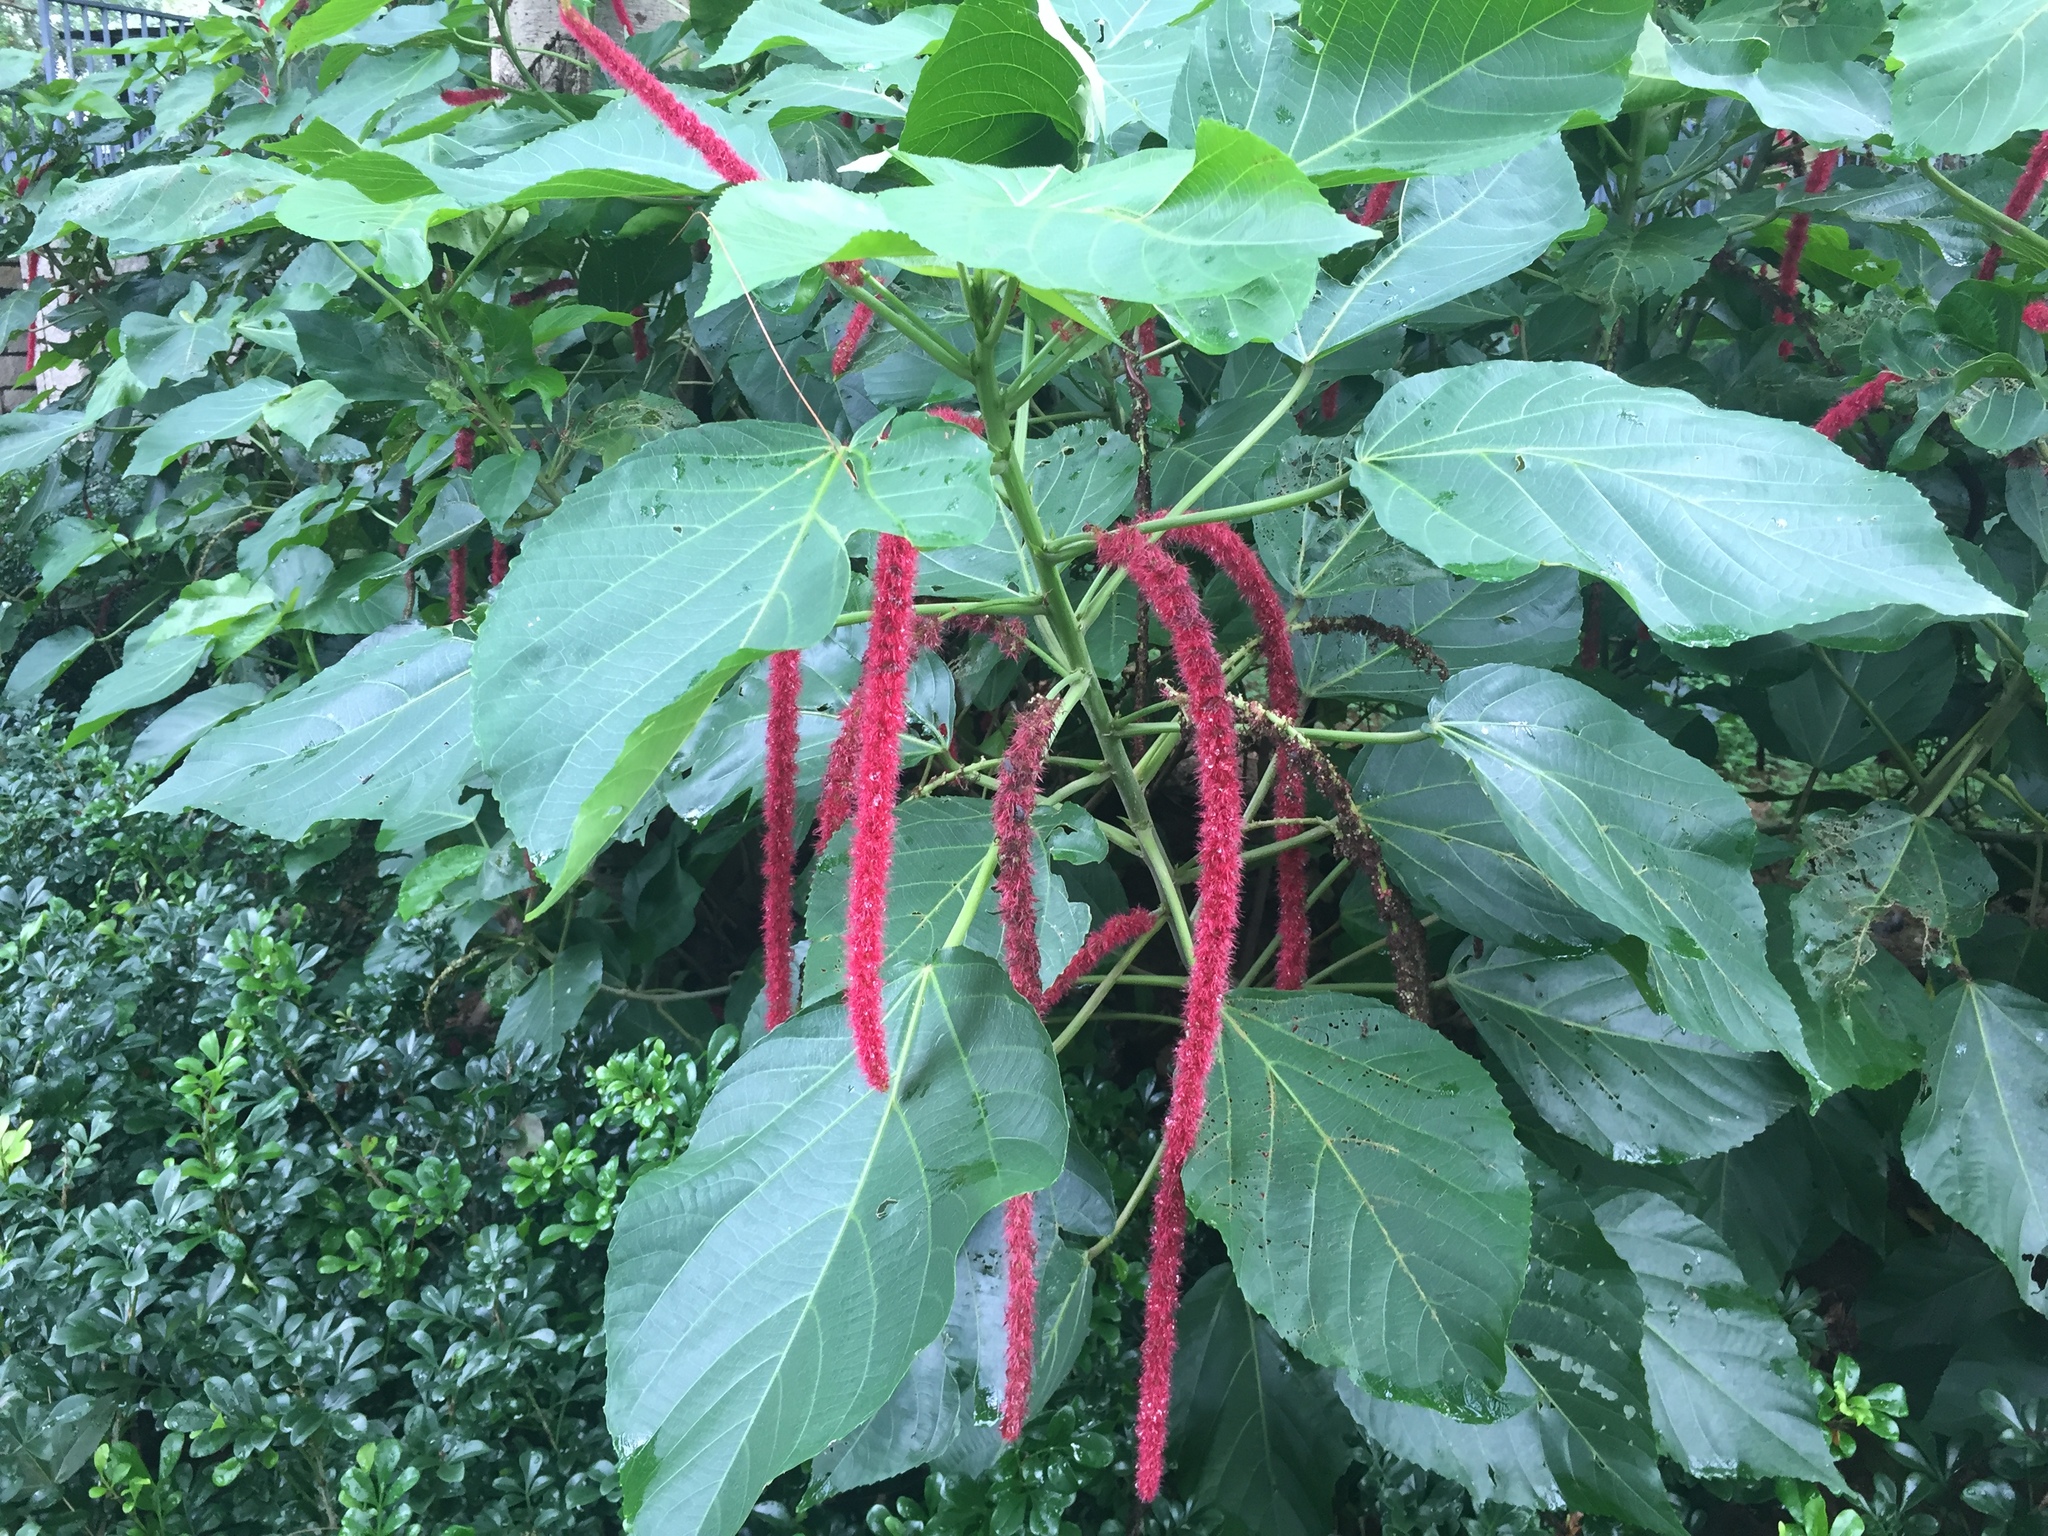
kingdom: Plantae
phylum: Tracheophyta
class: Magnoliopsida
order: Malpighiales
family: Euphorbiaceae
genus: Acalypha
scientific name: Acalypha hispida
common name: Chenilleplant
